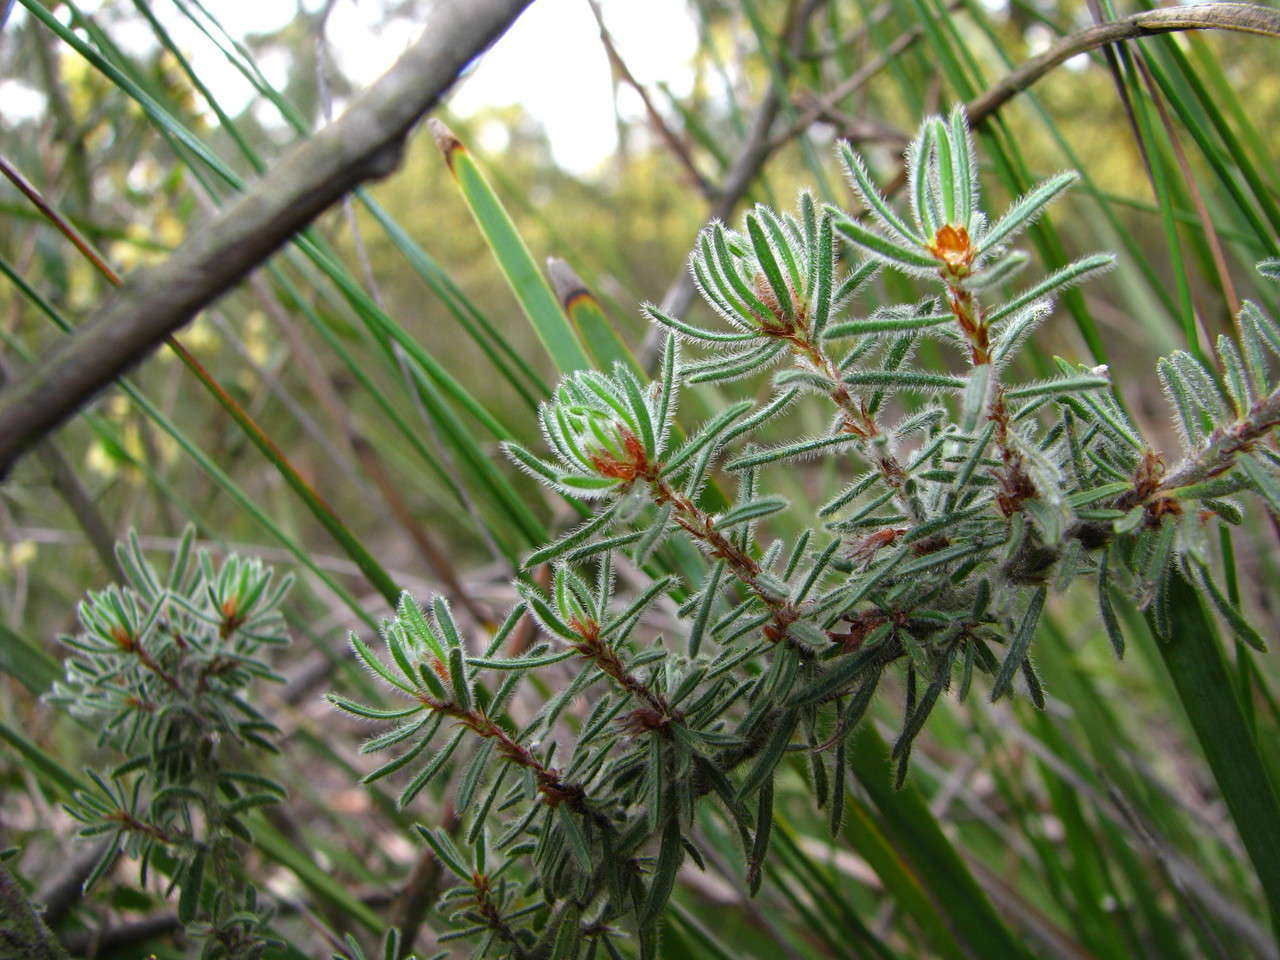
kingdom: Plantae
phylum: Tracheophyta
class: Magnoliopsida
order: Fabales
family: Fabaceae
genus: Pultenaea
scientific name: Pultenaea daltonii
